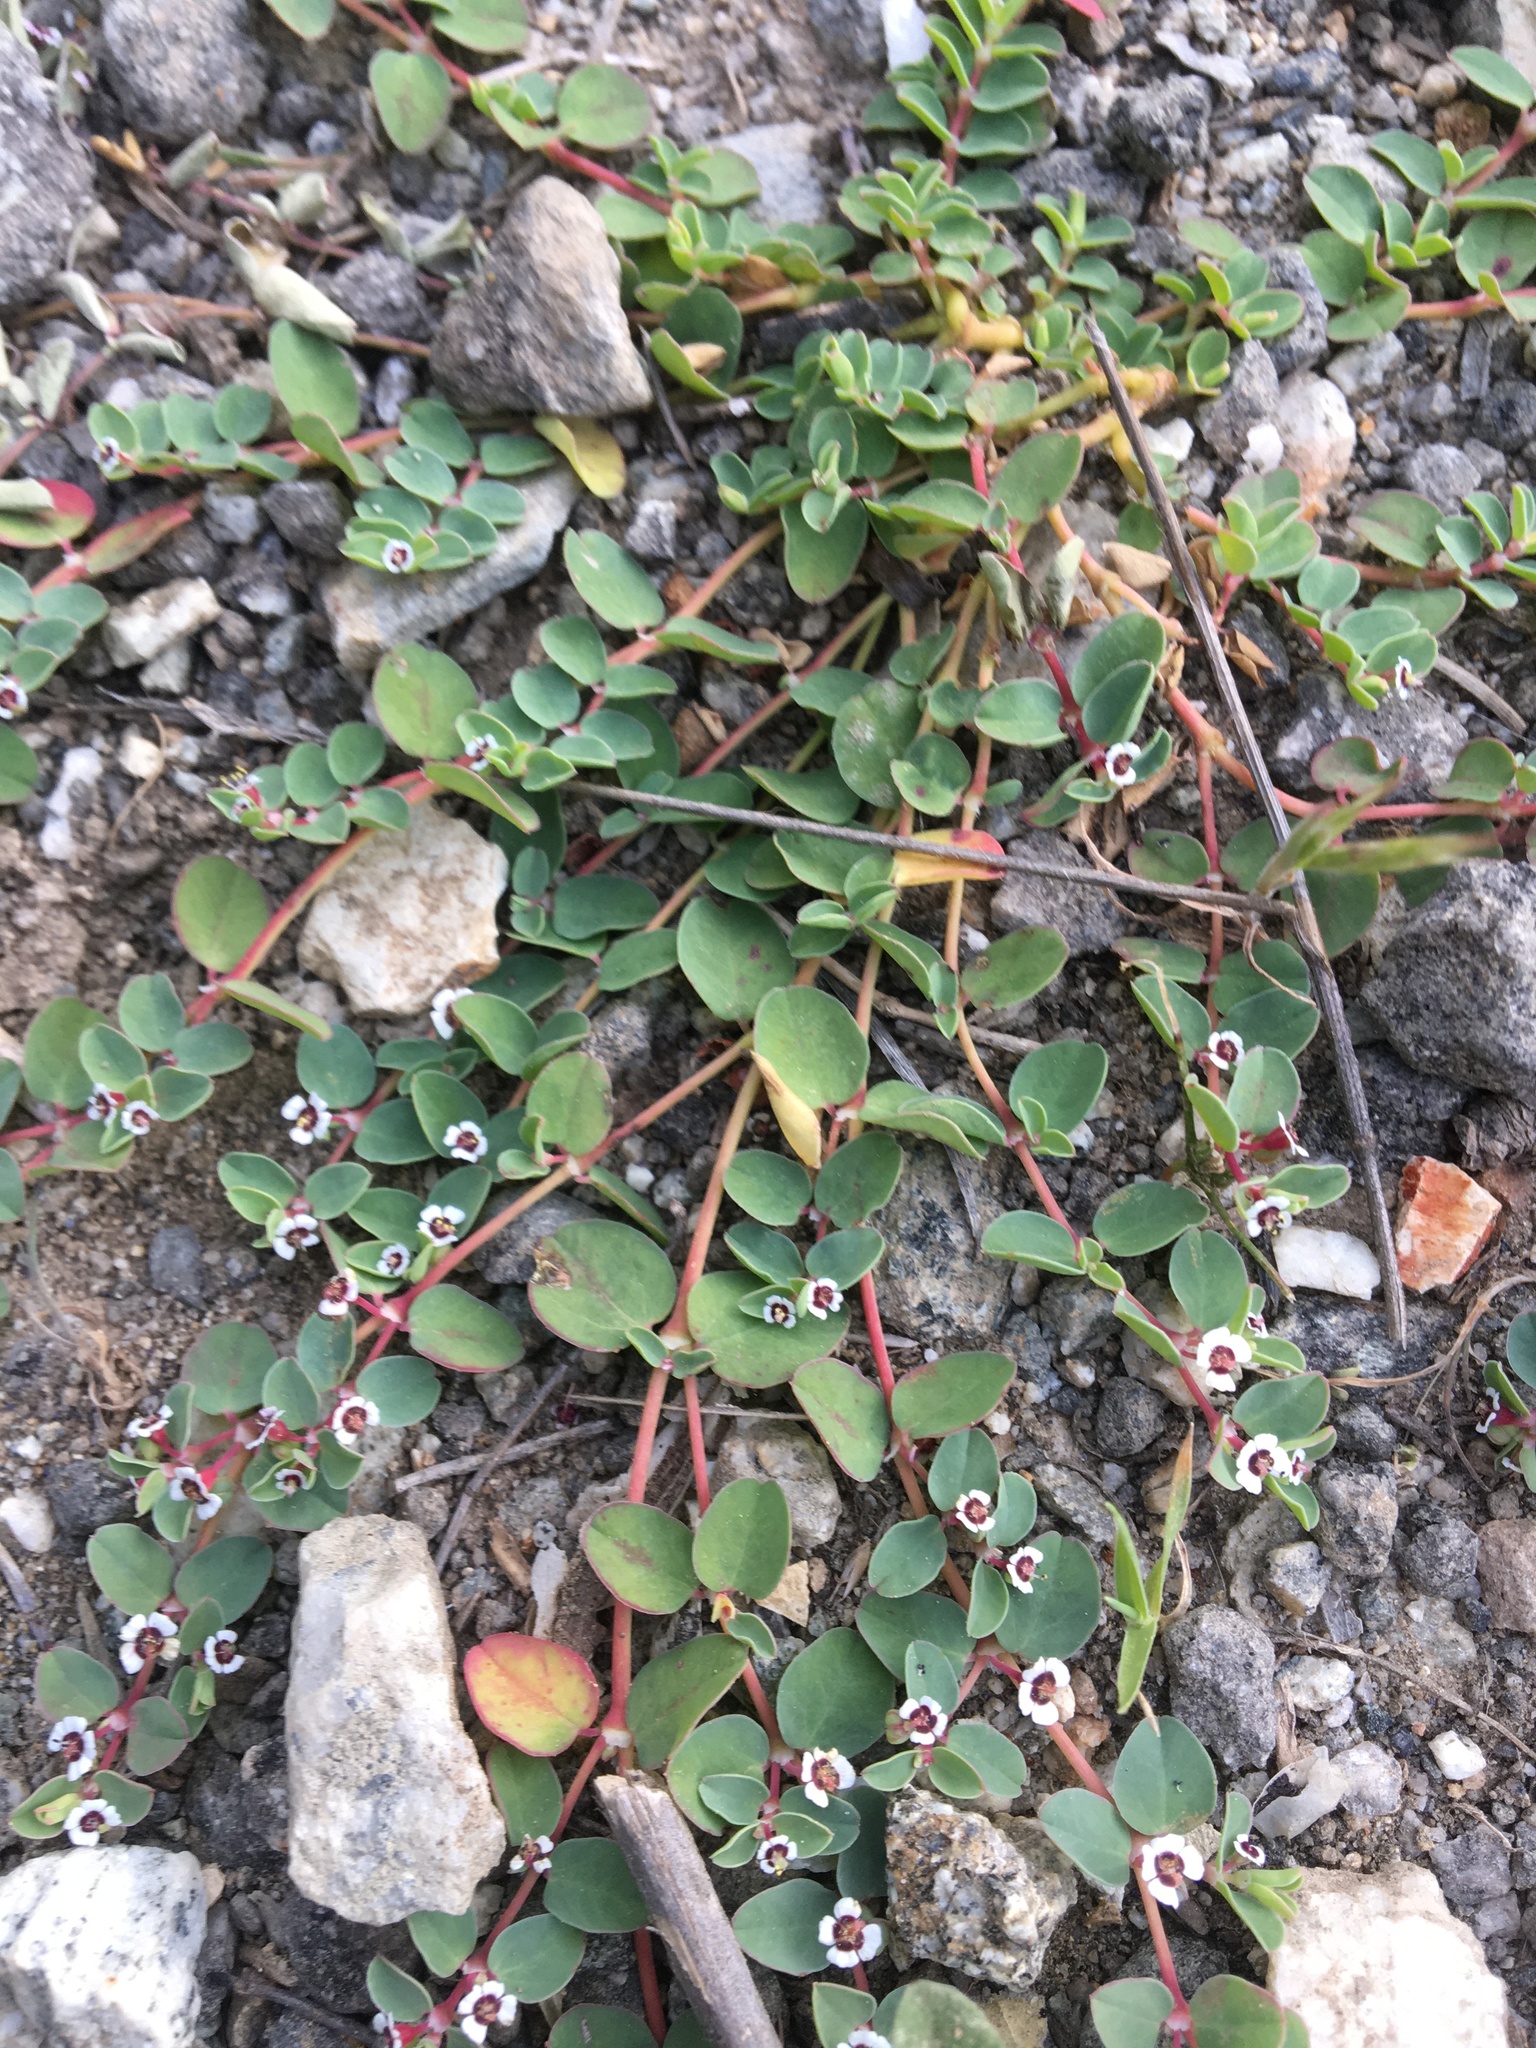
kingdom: Plantae
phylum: Tracheophyta
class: Magnoliopsida
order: Malpighiales
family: Euphorbiaceae
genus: Euphorbia
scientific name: Euphorbia albomarginata
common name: Whitemargin sandmat
